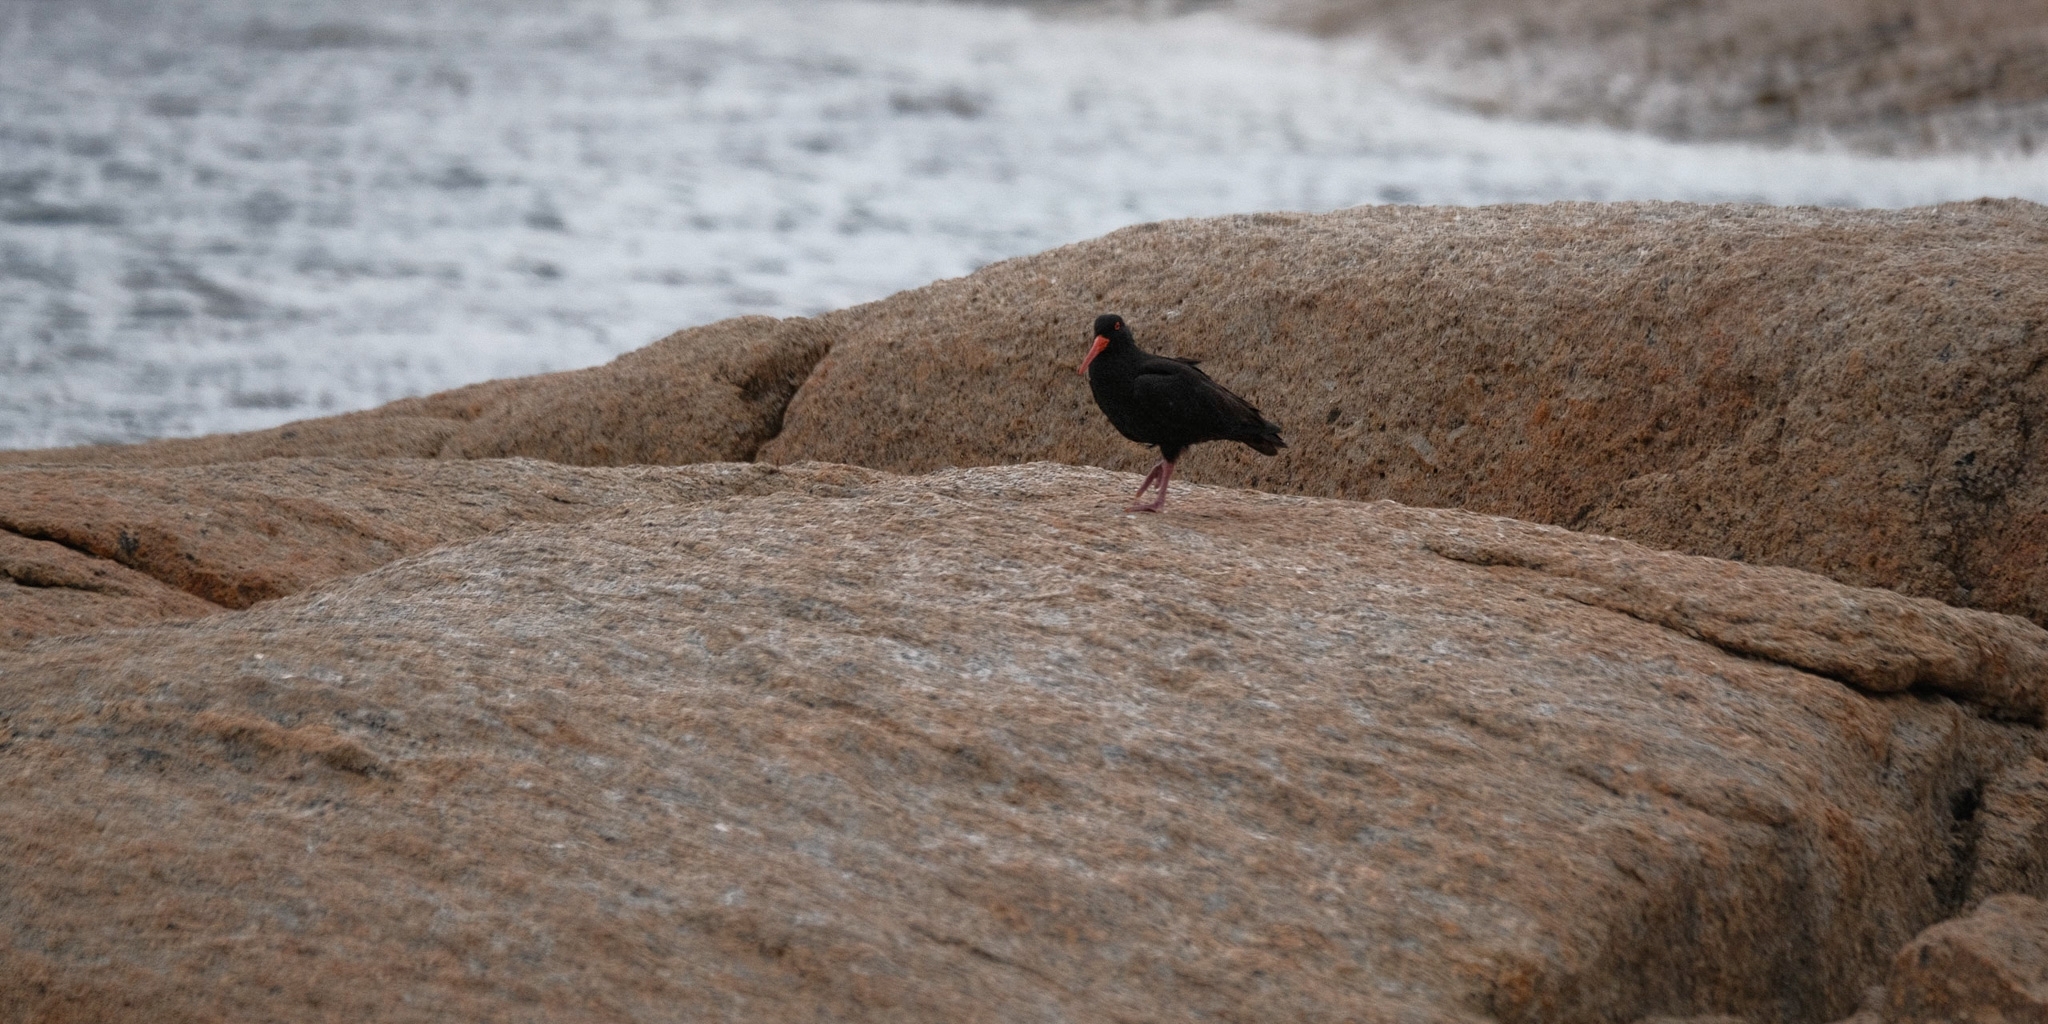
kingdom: Animalia
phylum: Chordata
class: Aves
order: Charadriiformes
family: Haematopodidae
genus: Haematopus
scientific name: Haematopus fuliginosus
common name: Sooty oystercatcher
